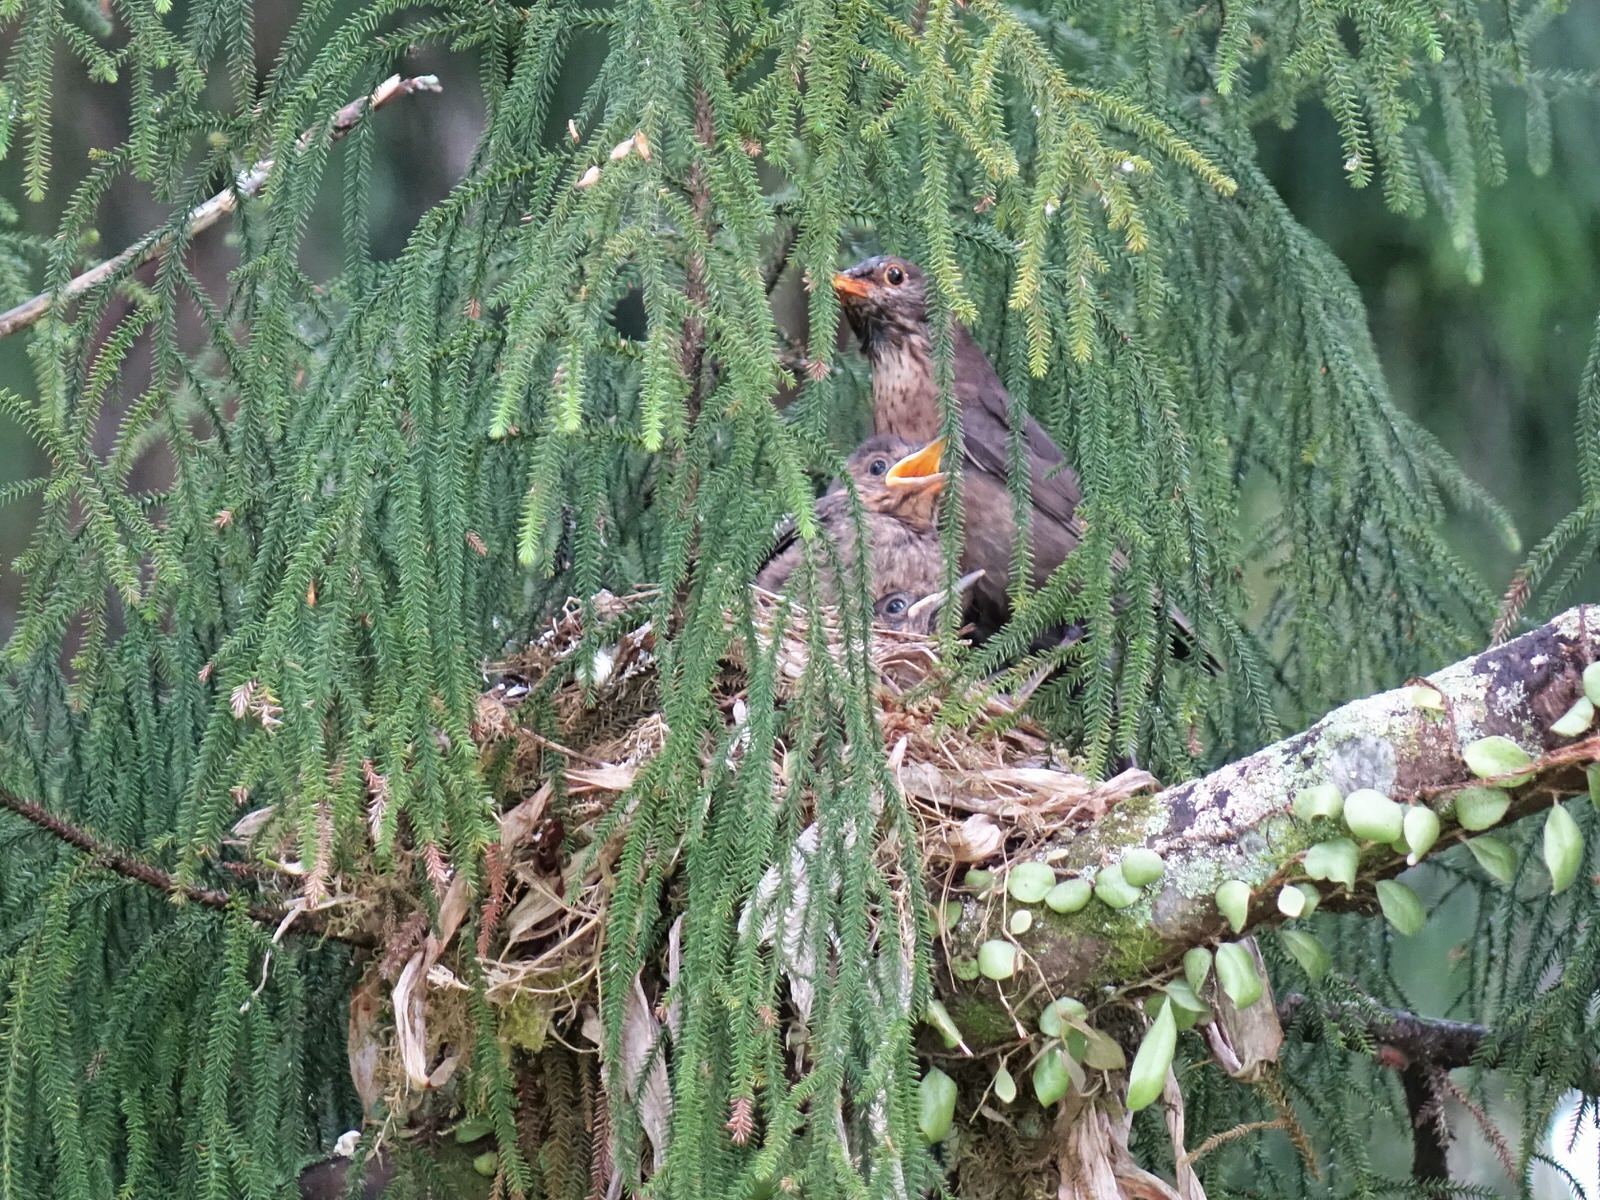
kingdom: Animalia
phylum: Chordata
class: Aves
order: Passeriformes
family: Turdidae
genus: Turdus
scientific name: Turdus merula
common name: Common blackbird
